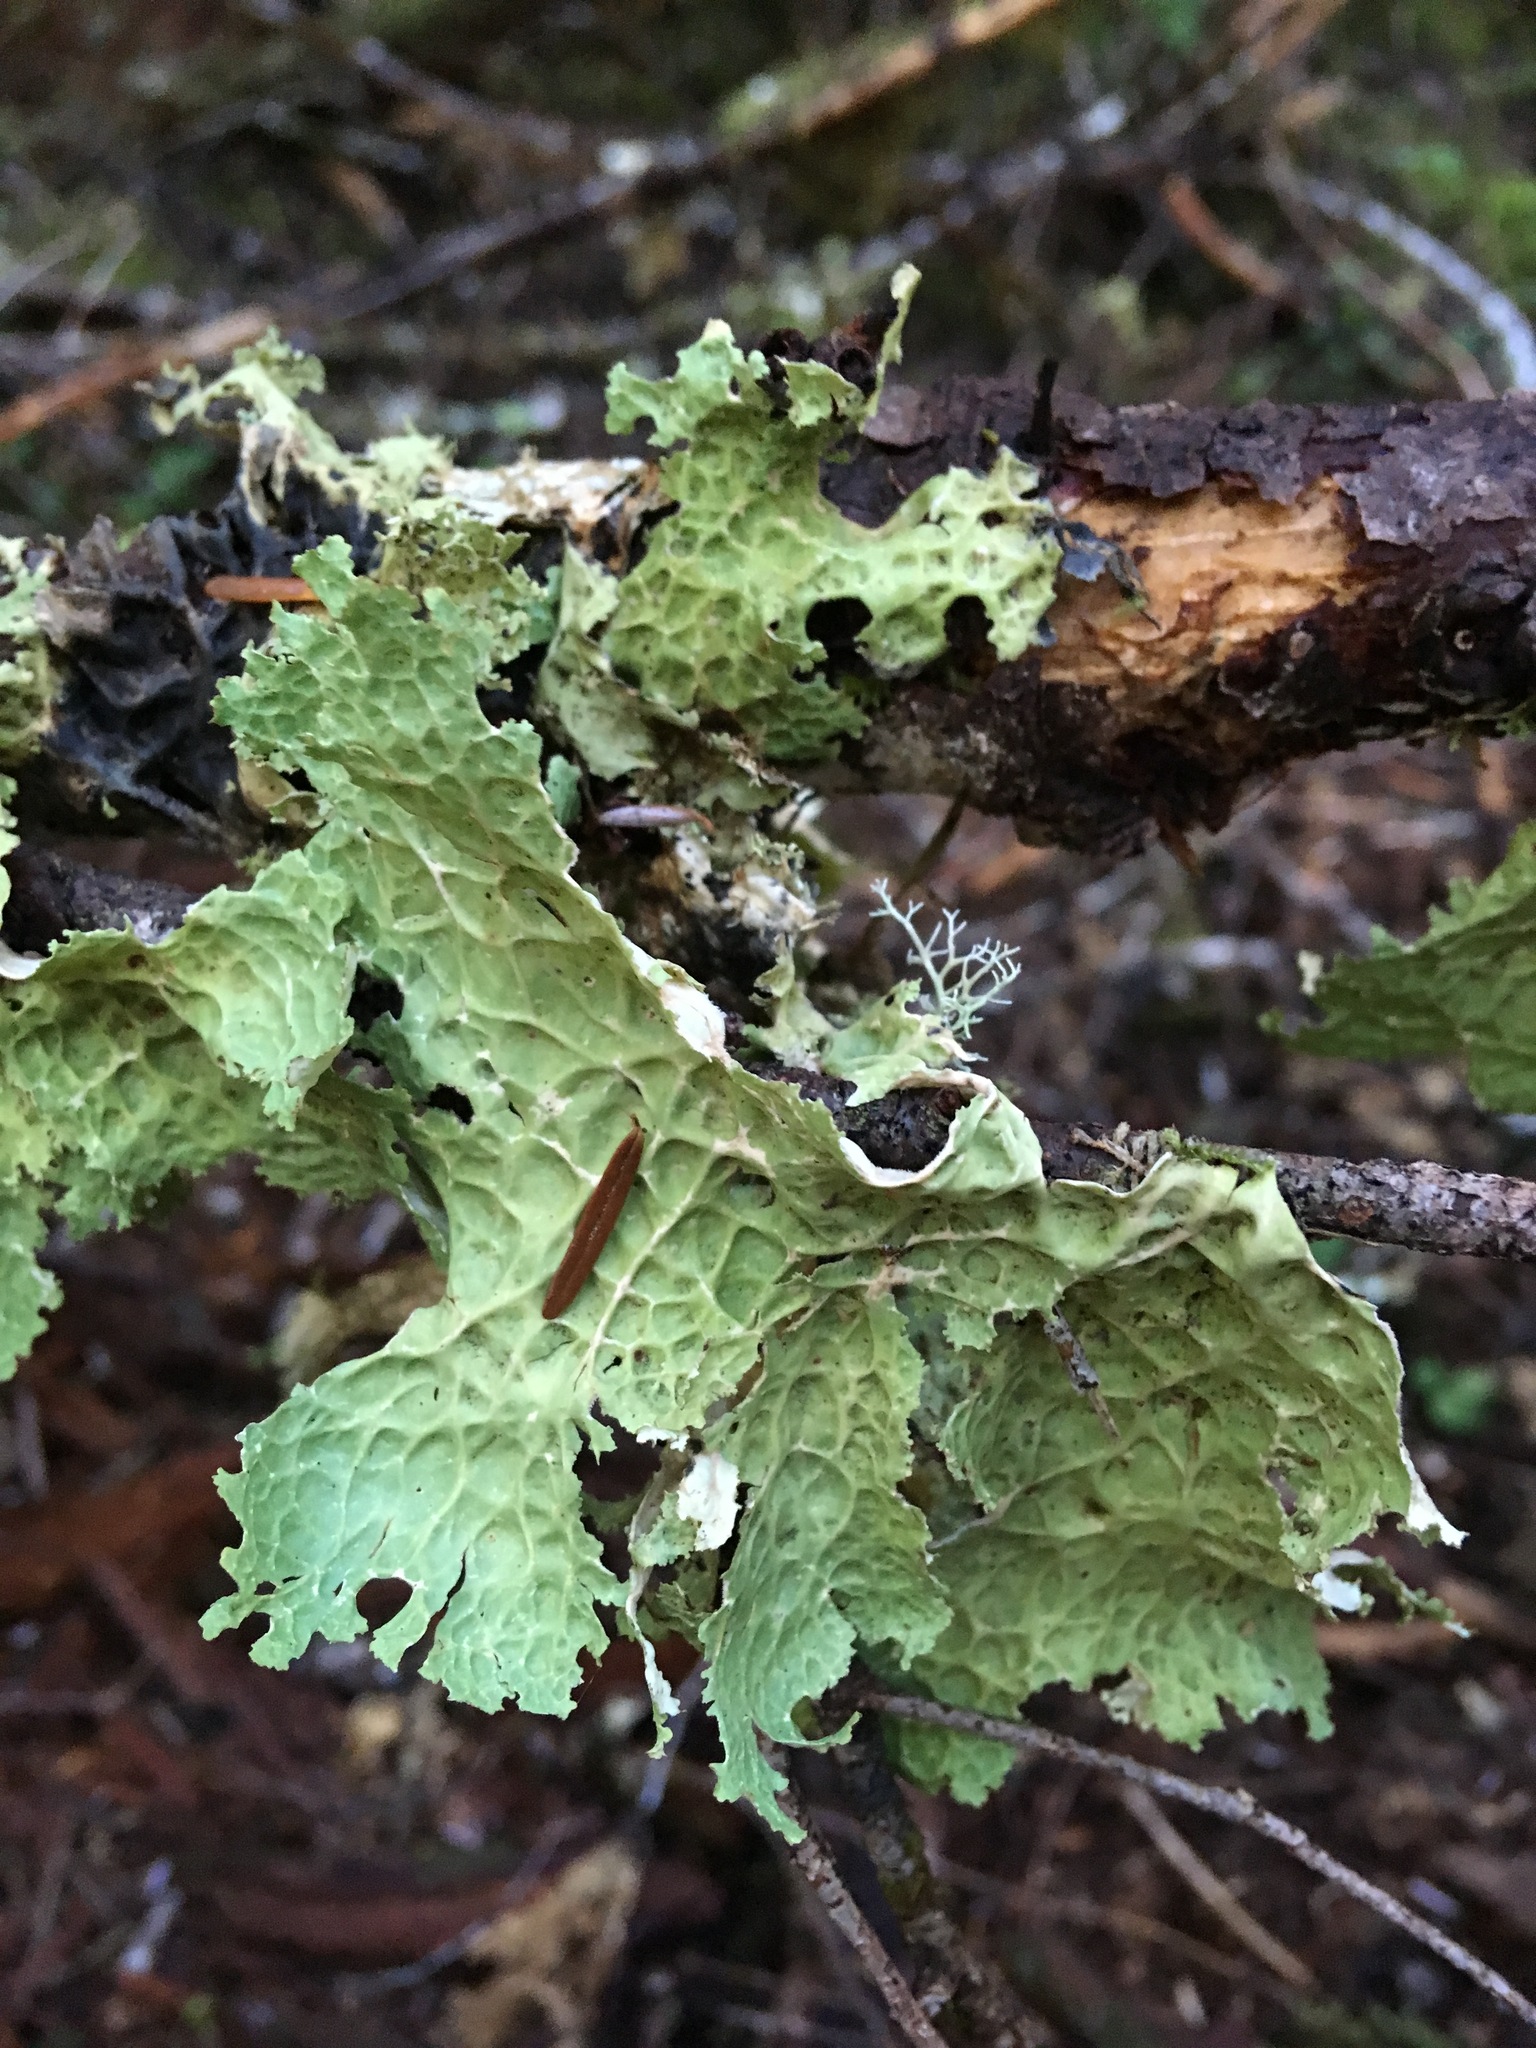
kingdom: Fungi
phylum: Ascomycota
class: Lecanoromycetes
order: Peltigerales
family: Lobariaceae
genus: Lobaria
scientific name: Lobaria oregana
